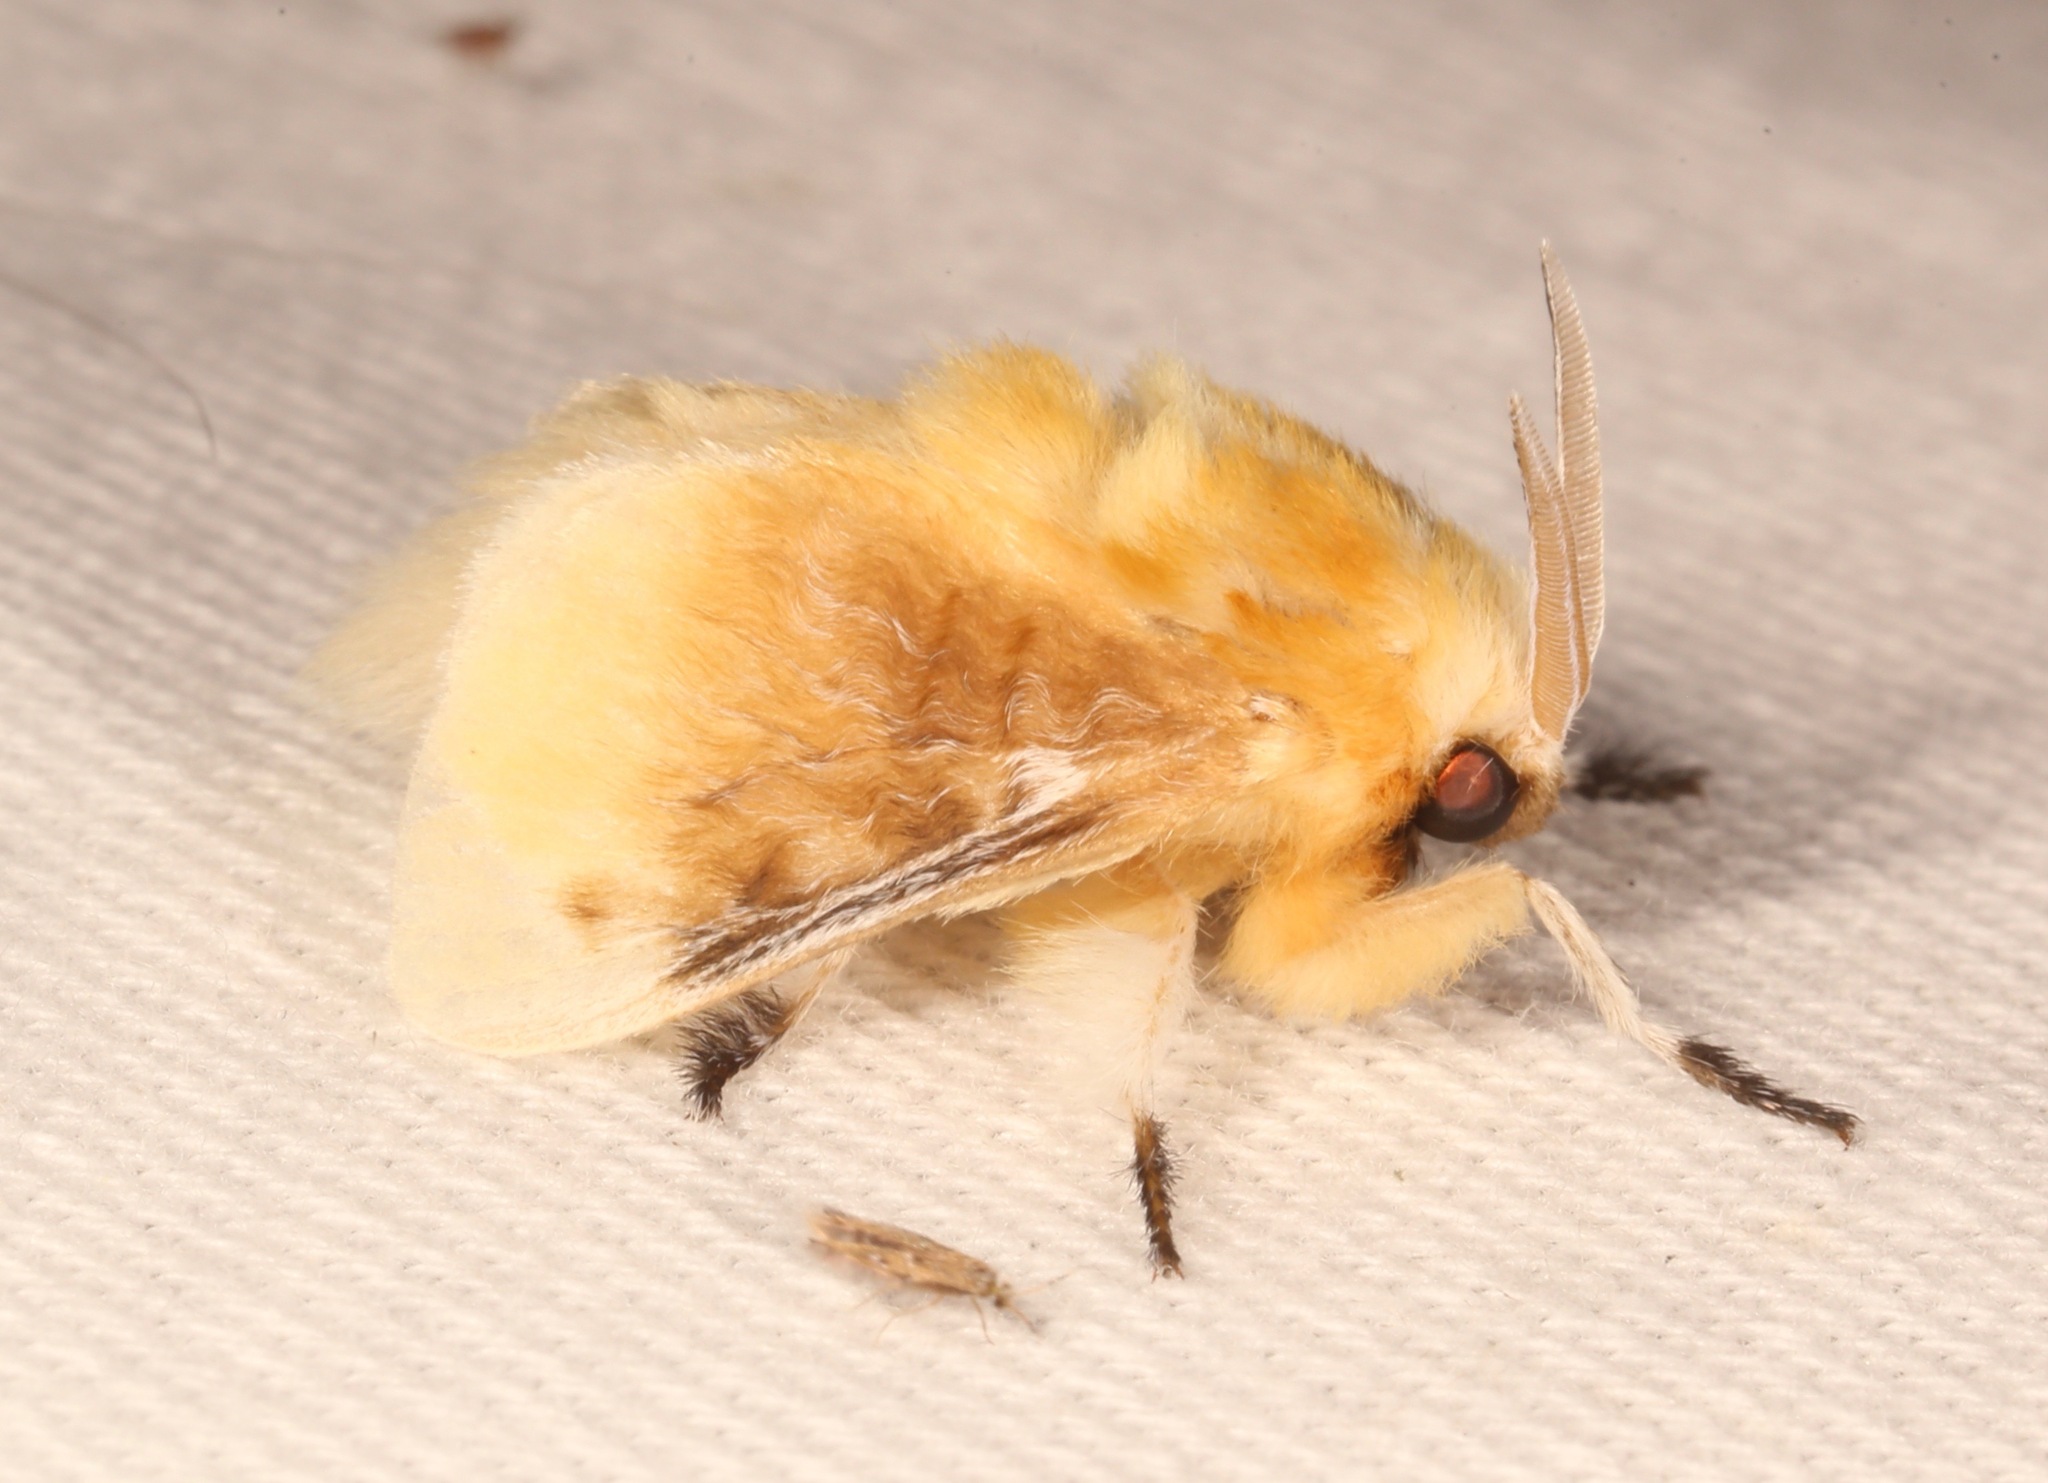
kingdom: Animalia
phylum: Arthropoda
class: Insecta
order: Lepidoptera
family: Megalopygidae
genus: Megalopyge
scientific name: Megalopyge opercularis
